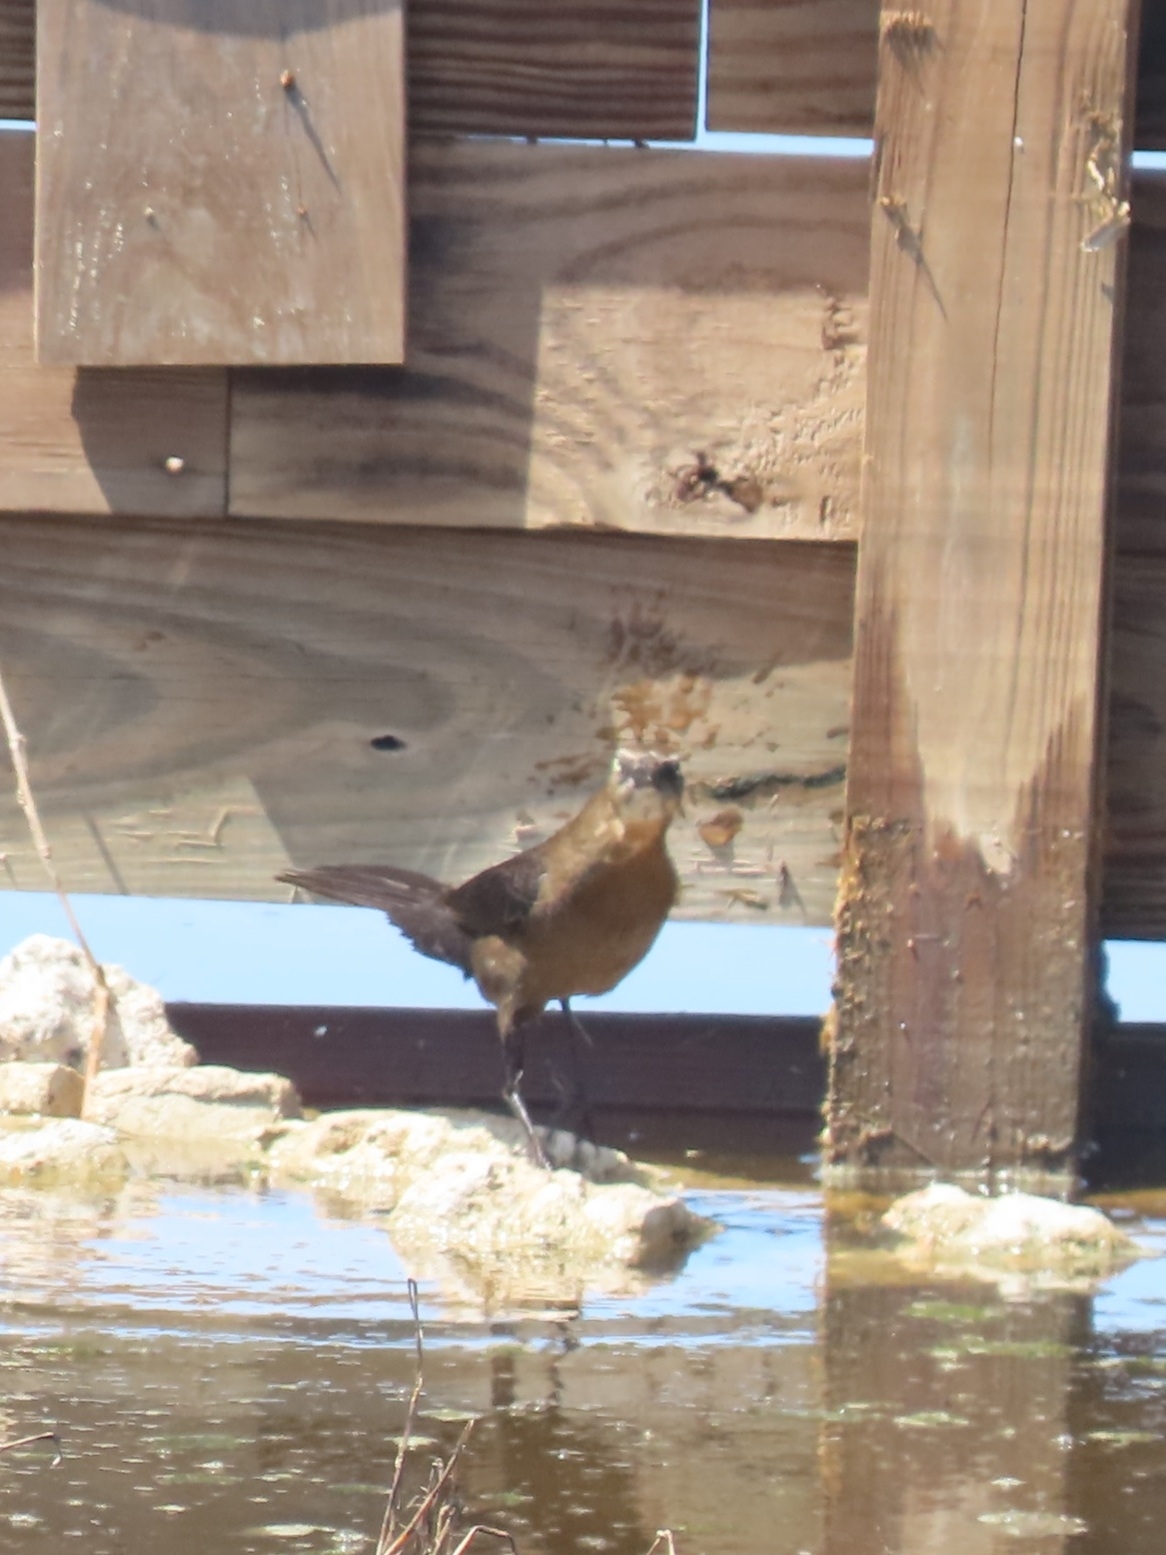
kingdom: Animalia
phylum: Chordata
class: Aves
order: Passeriformes
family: Icteridae
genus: Quiscalus
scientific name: Quiscalus mexicanus
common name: Great-tailed grackle
